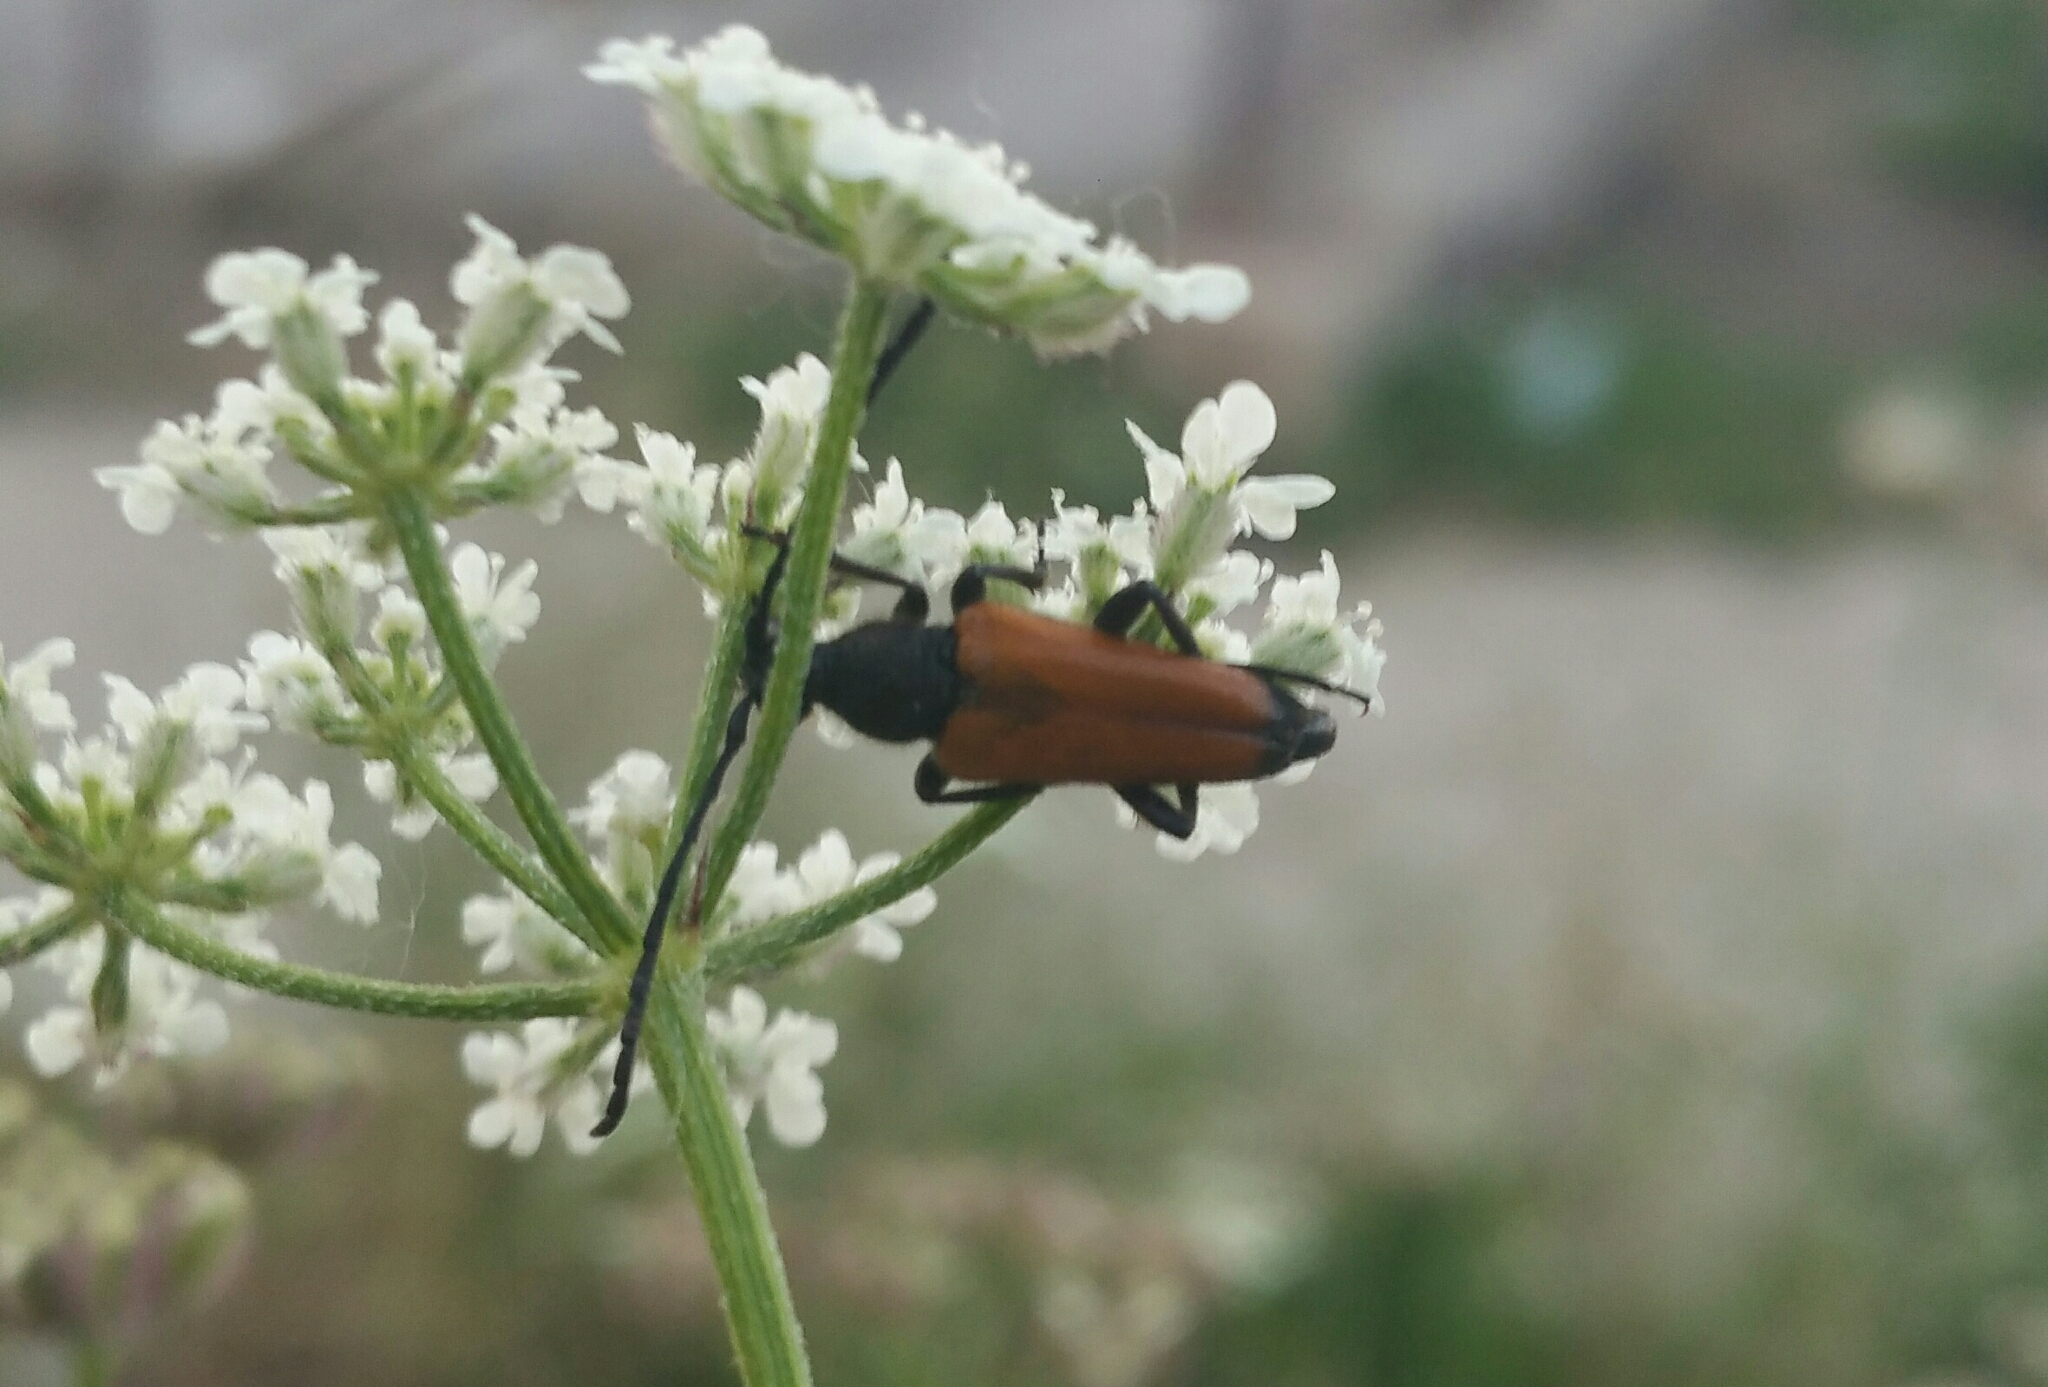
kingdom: Animalia
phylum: Arthropoda
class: Insecta
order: Coleoptera
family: Cerambycidae
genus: Paracorymbia
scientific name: Paracorymbia fulva
